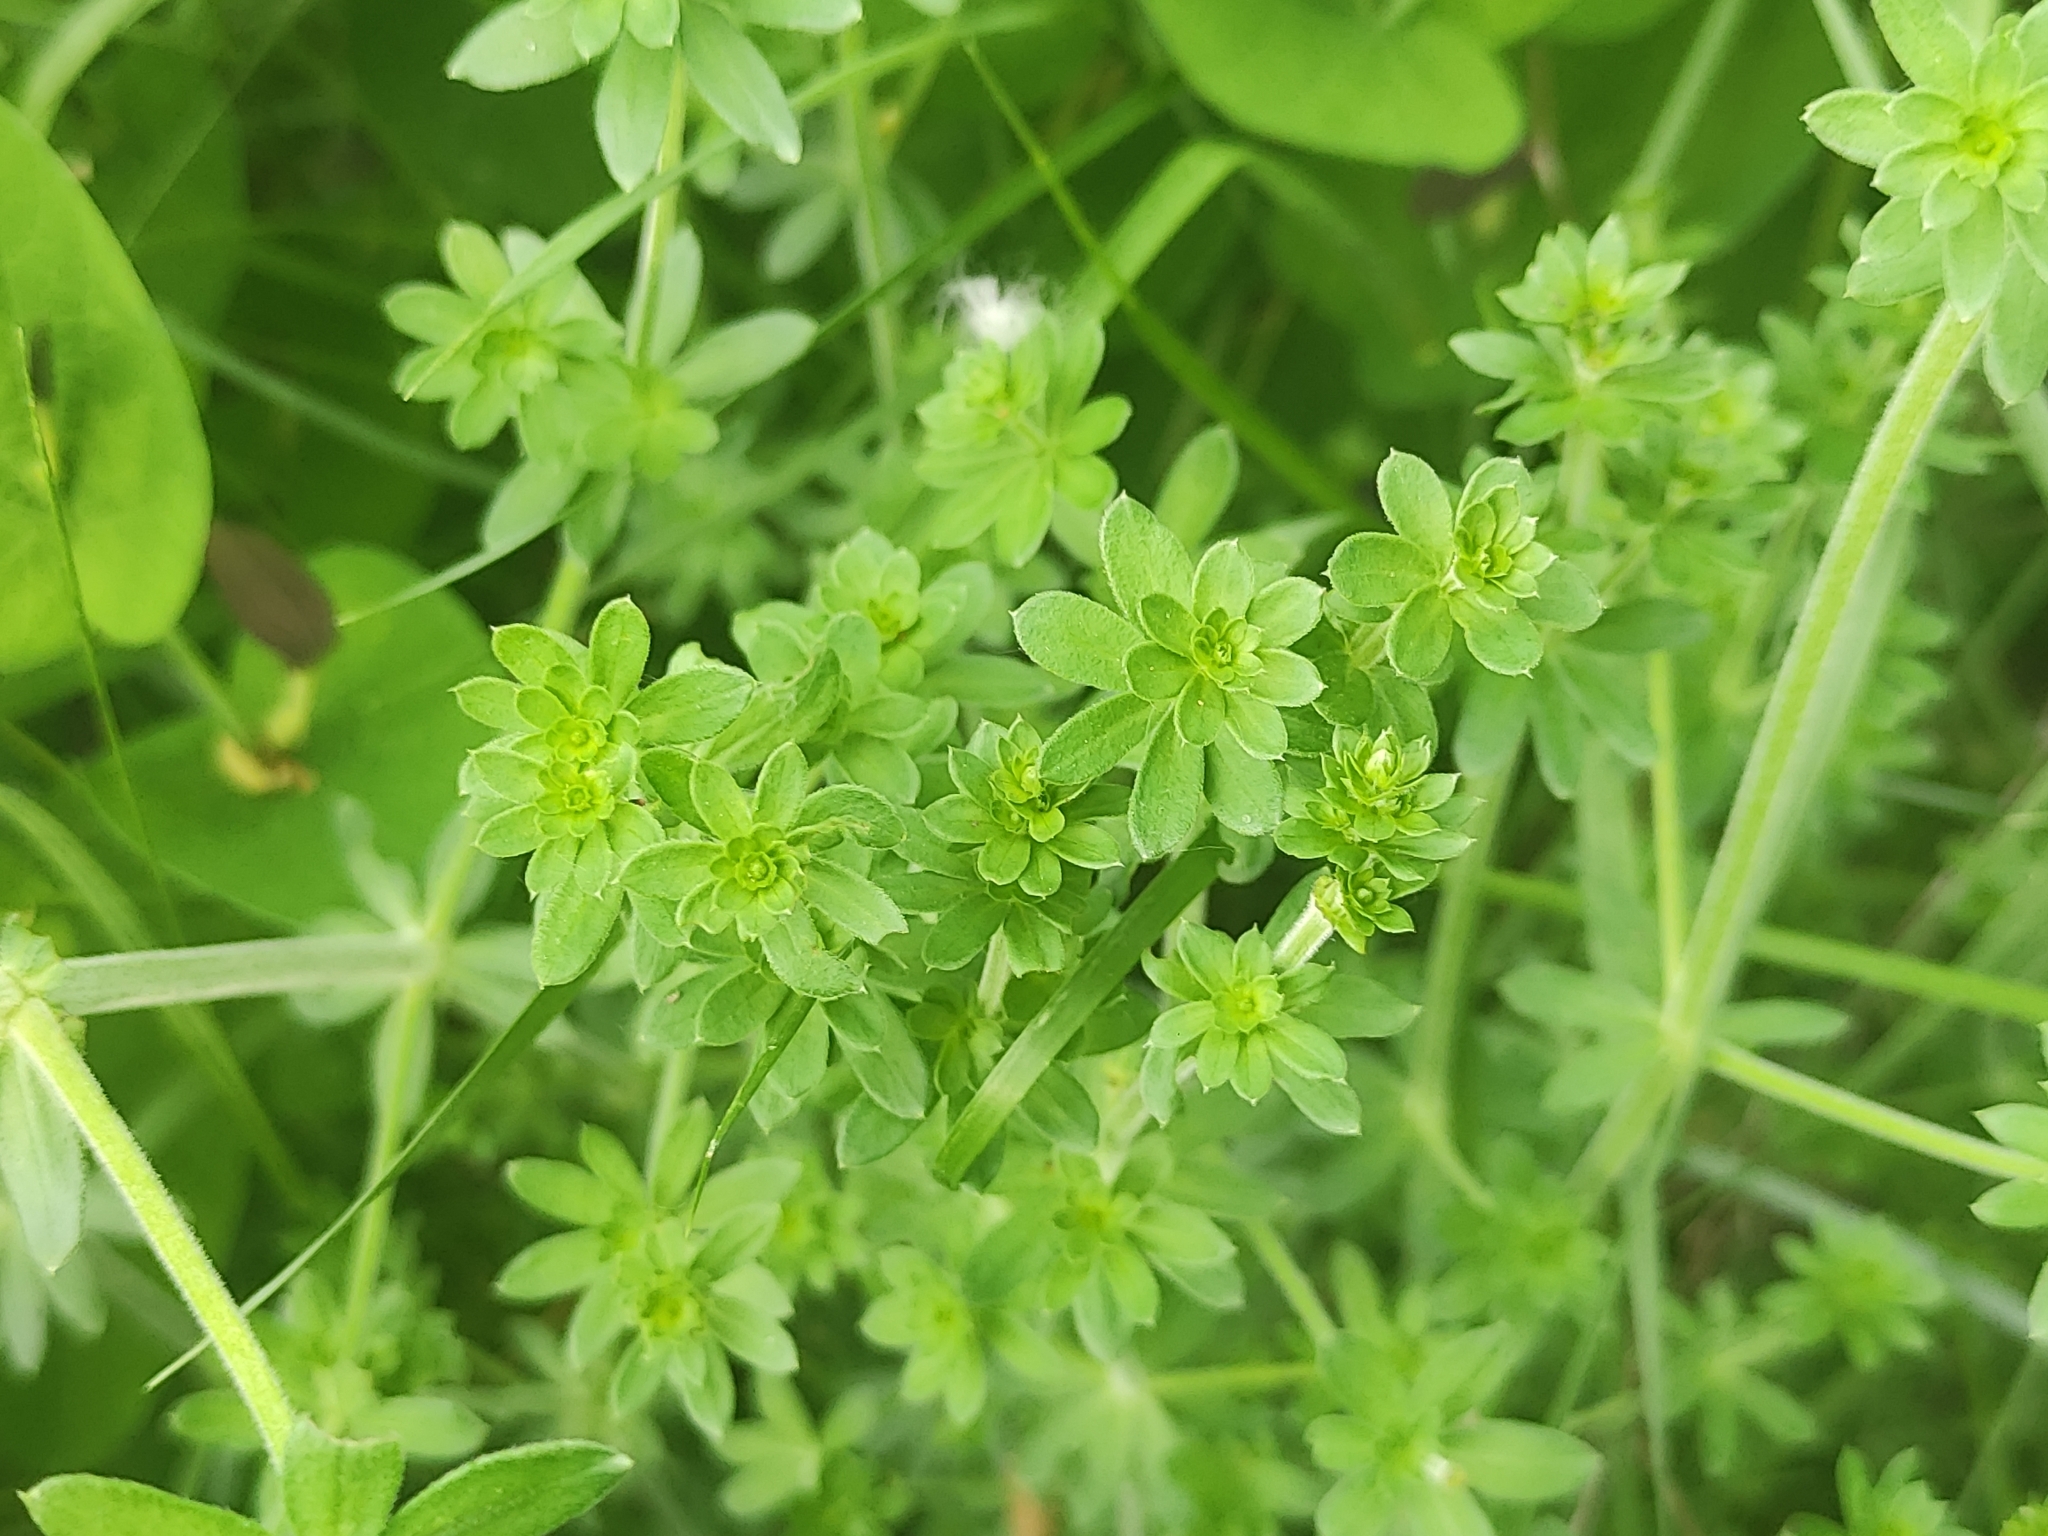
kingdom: Plantae
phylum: Tracheophyta
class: Magnoliopsida
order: Gentianales
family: Rubiaceae
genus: Galium
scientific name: Galium mollugo
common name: Hedge bedstraw
